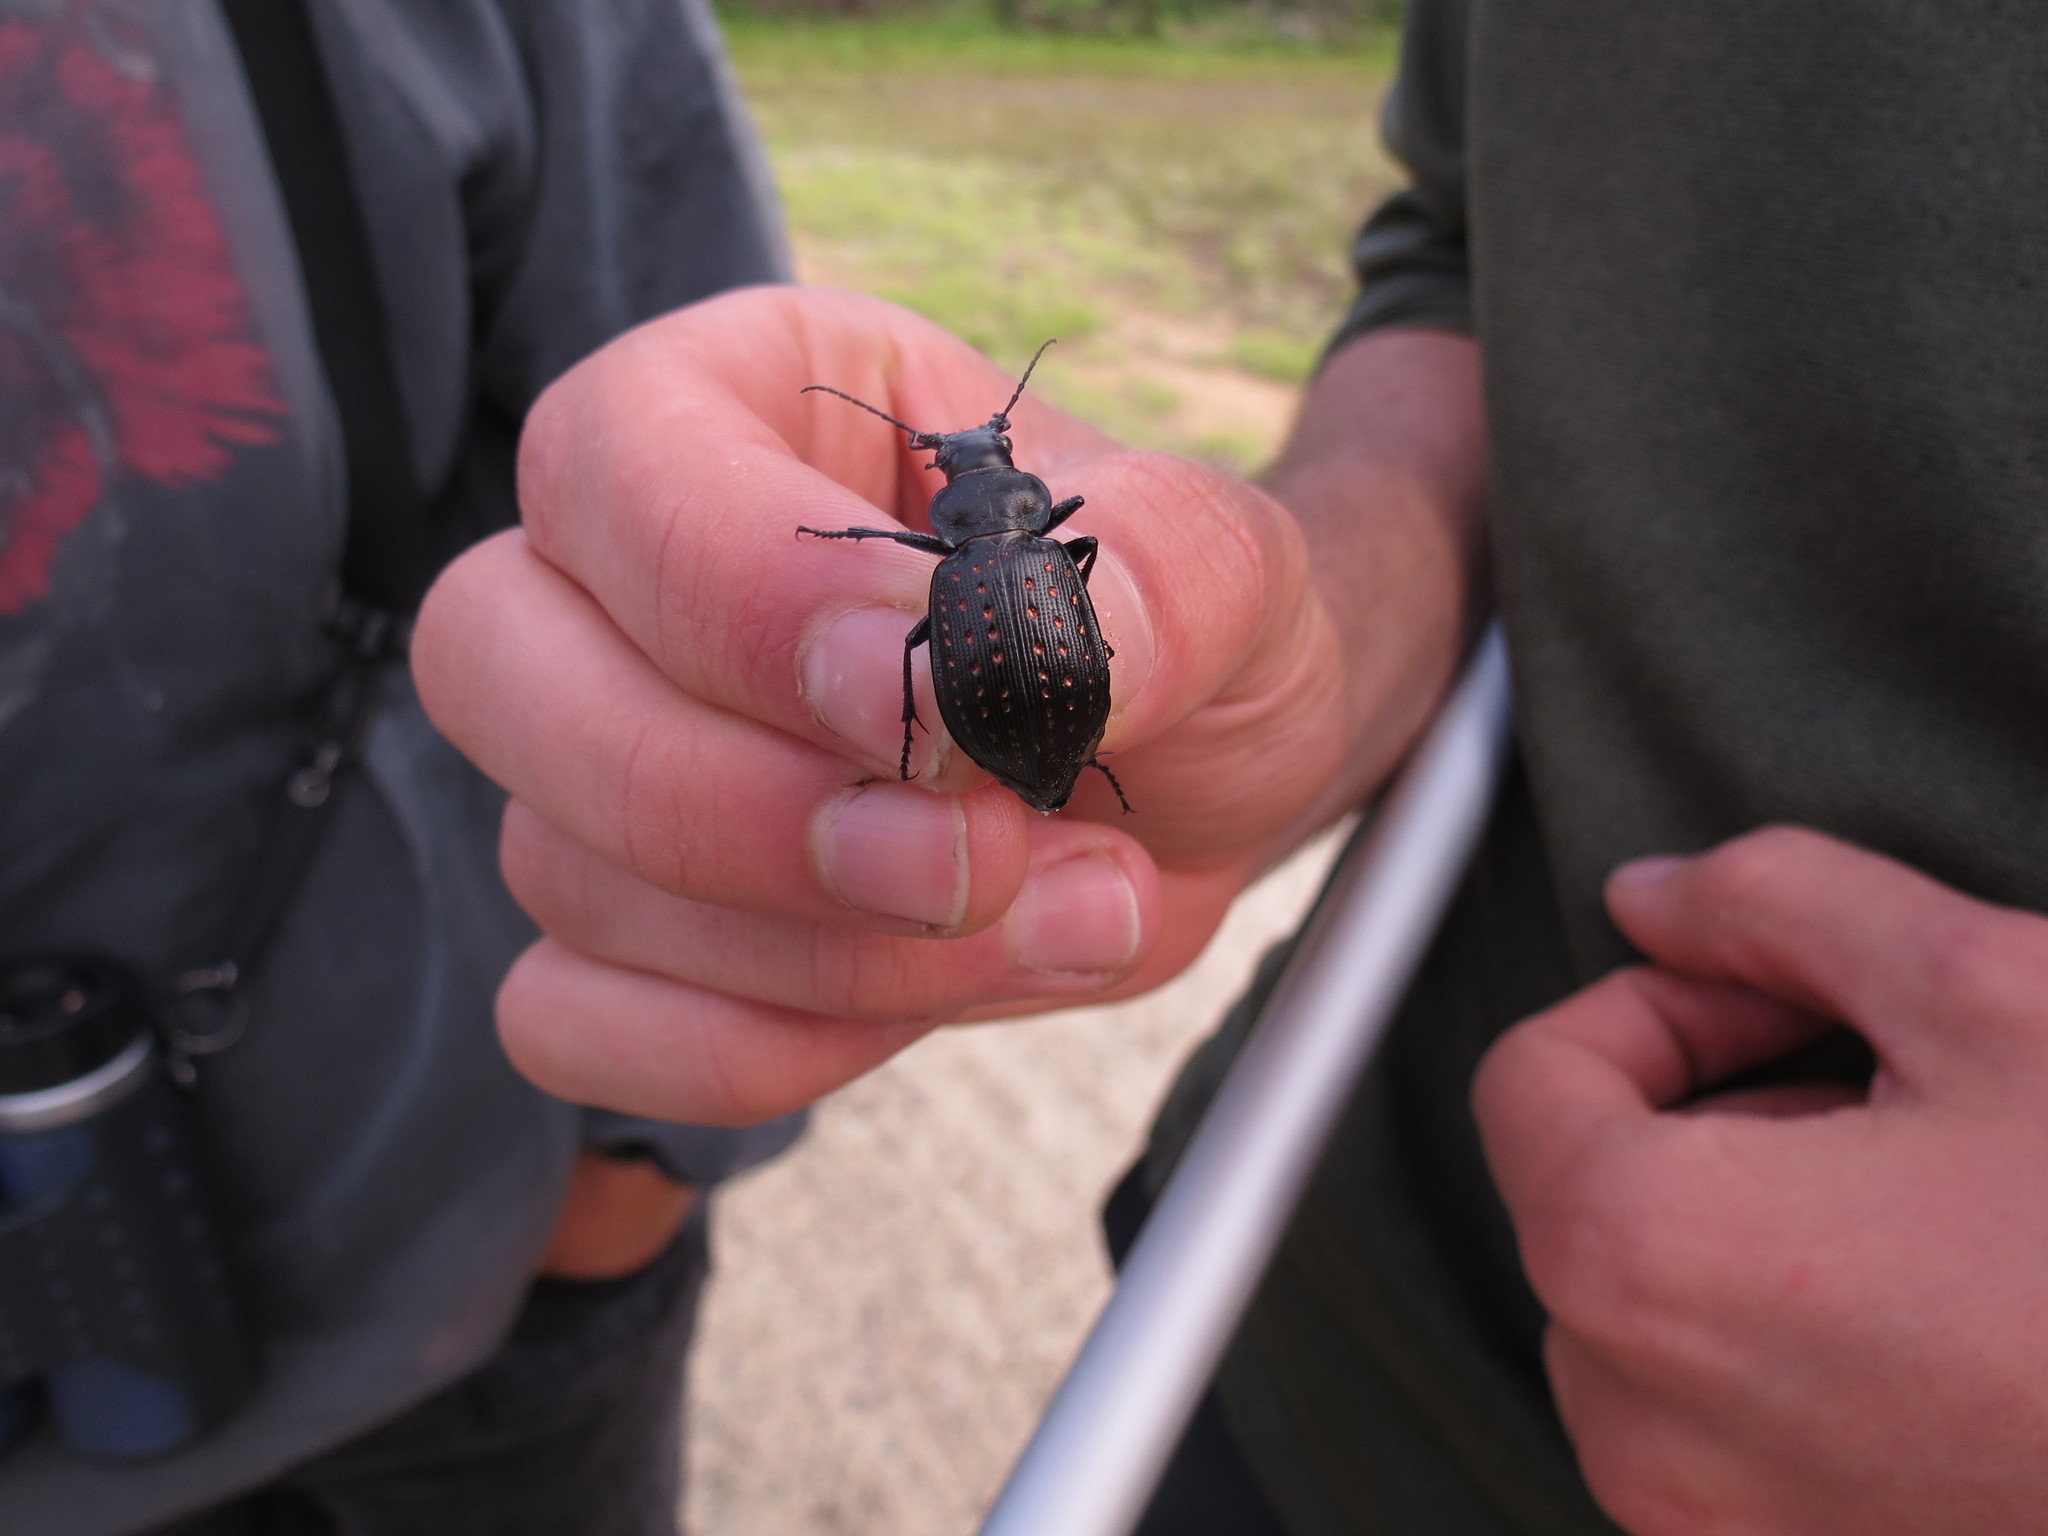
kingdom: Animalia
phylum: Arthropoda
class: Insecta
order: Coleoptera
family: Carabidae
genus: Calosoma
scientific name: Calosoma calidum
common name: Fiery hunter
